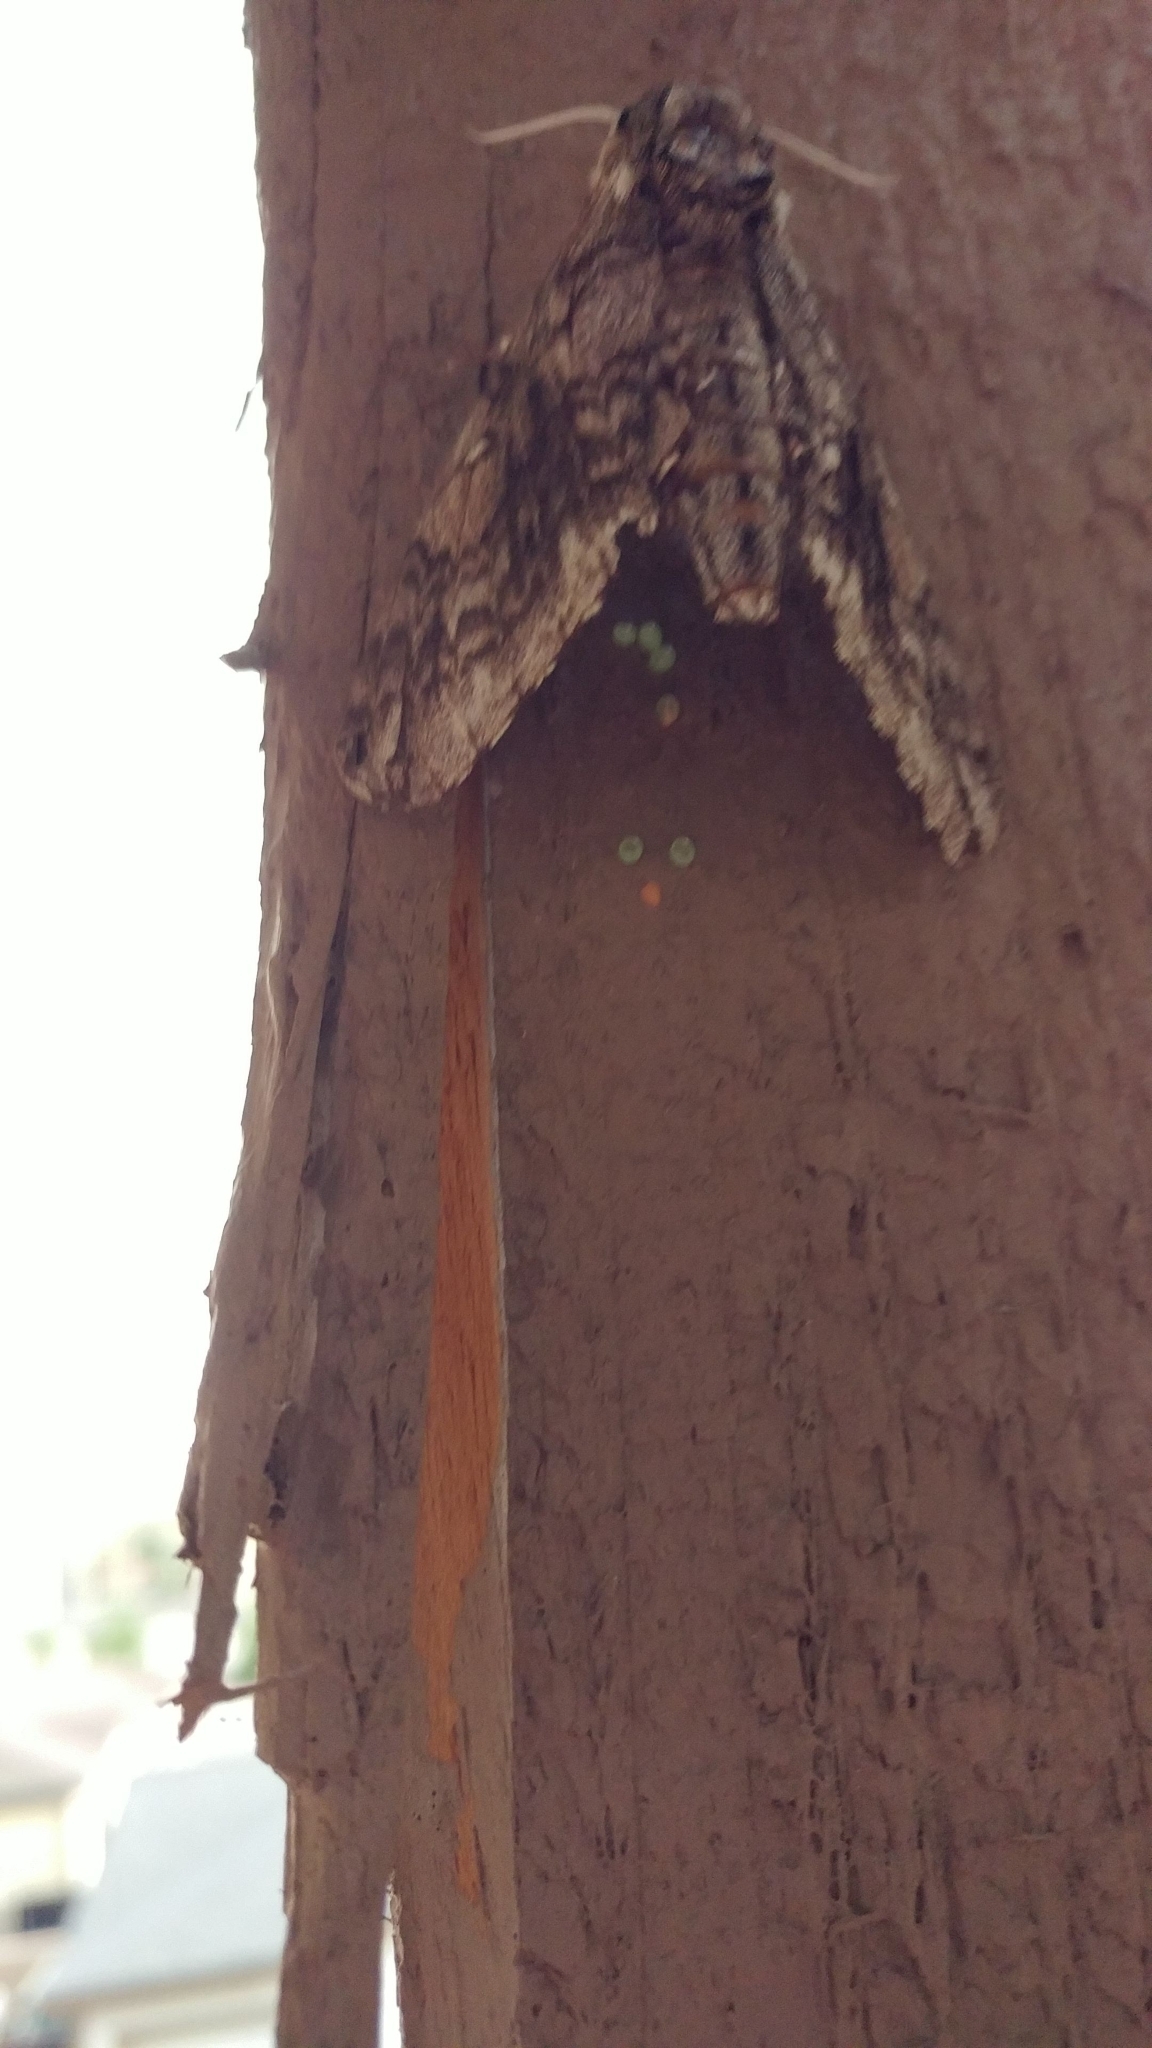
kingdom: Animalia
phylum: Arthropoda
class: Insecta
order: Lepidoptera
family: Sphingidae
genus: Ceratomia
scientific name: Ceratomia undulosa
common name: Waved sphinx
